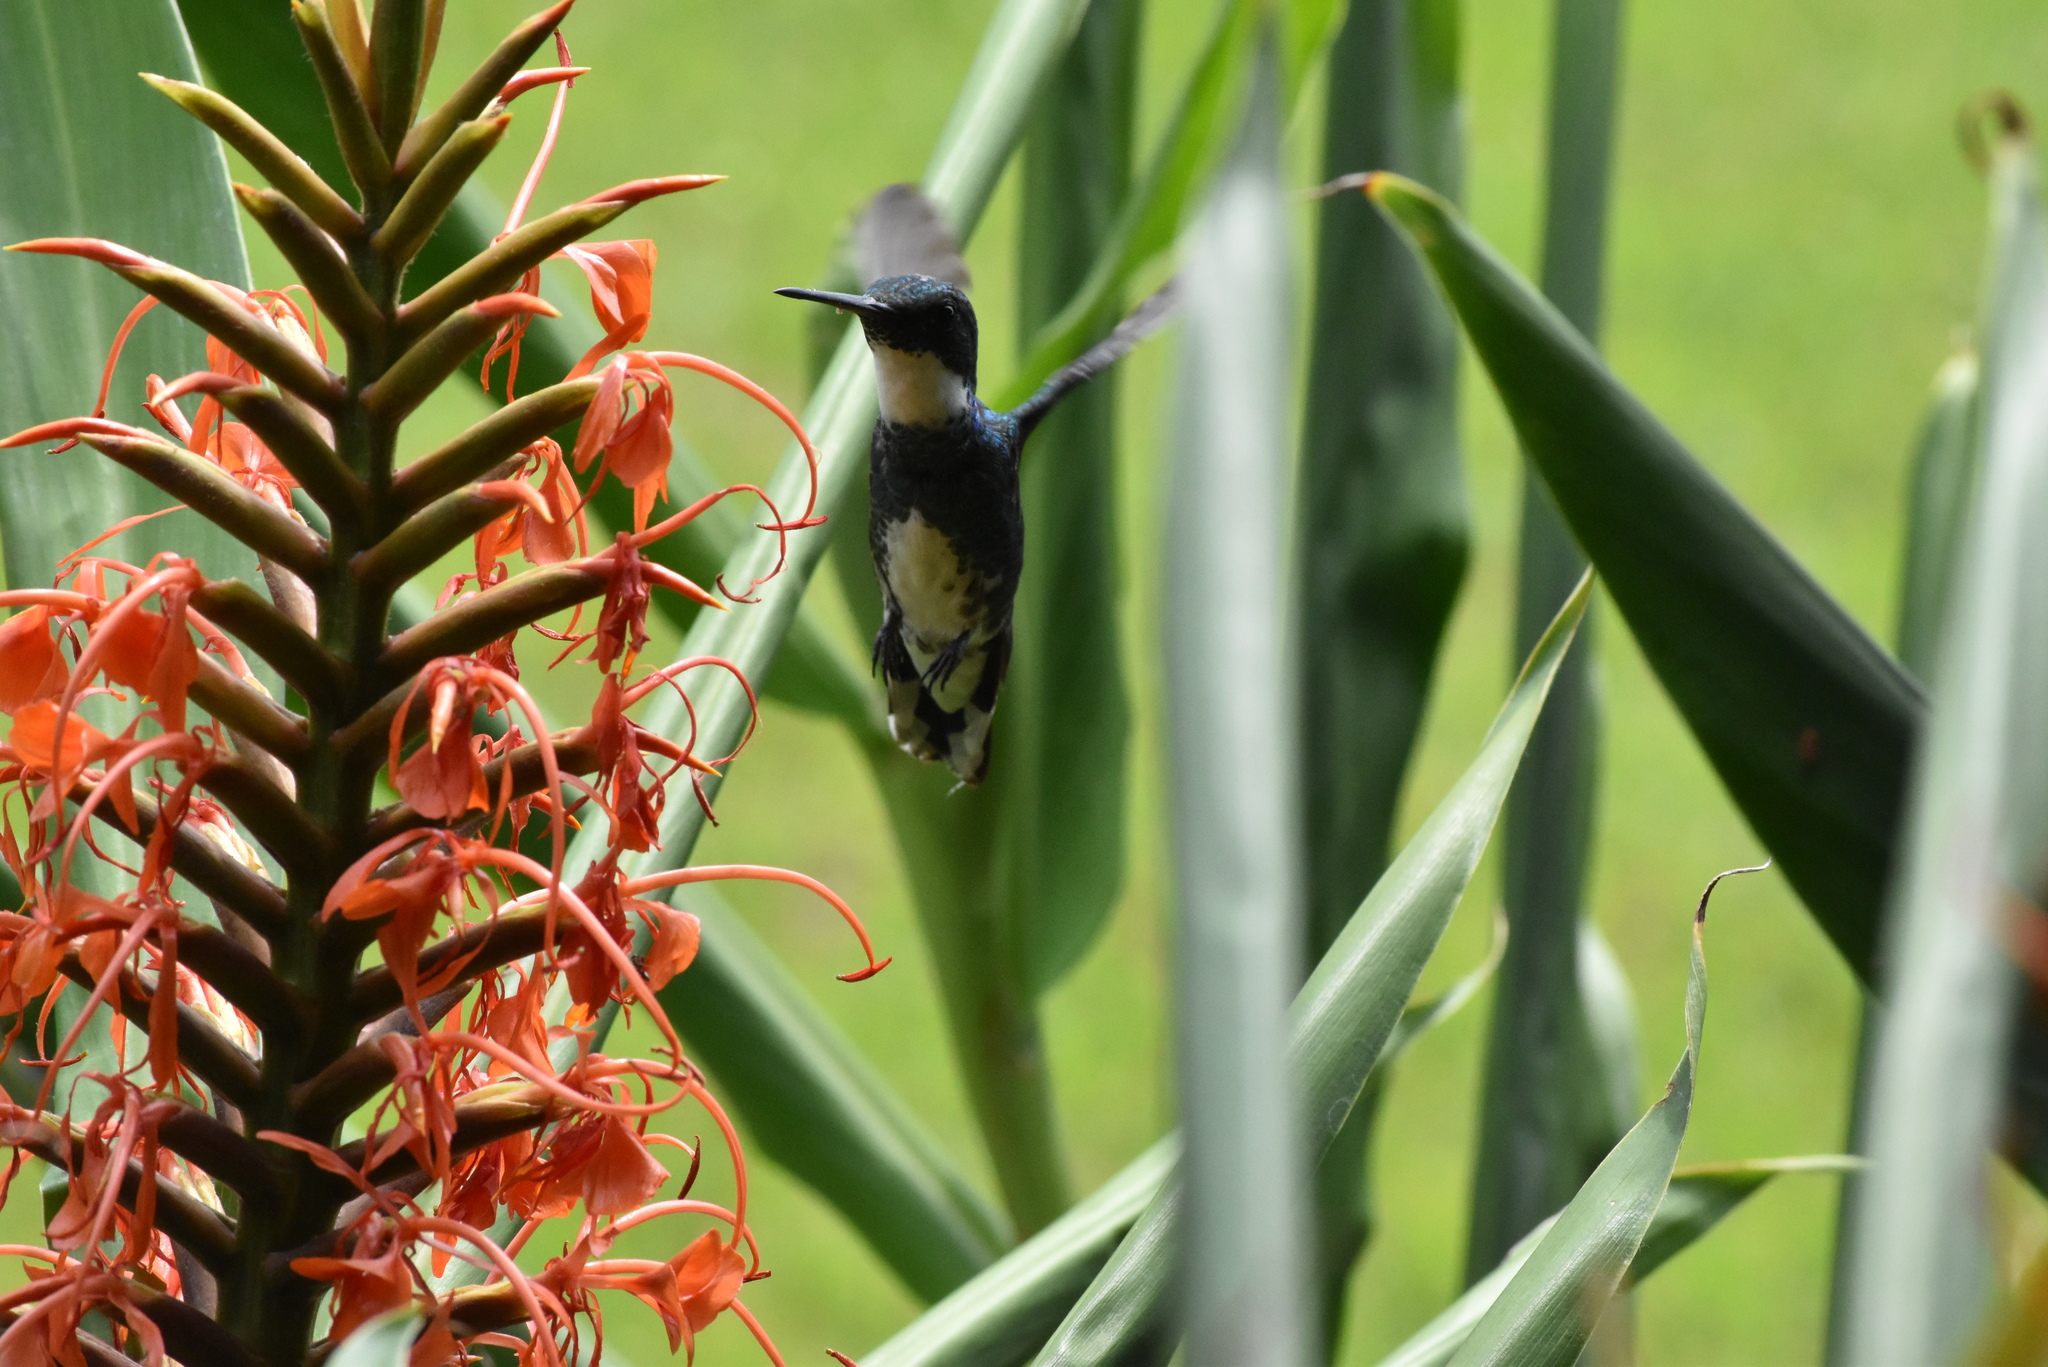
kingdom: Animalia
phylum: Chordata
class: Aves
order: Apodiformes
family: Trochilidae
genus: Leucochloris
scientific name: Leucochloris albicollis
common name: White-throated hummingbird
